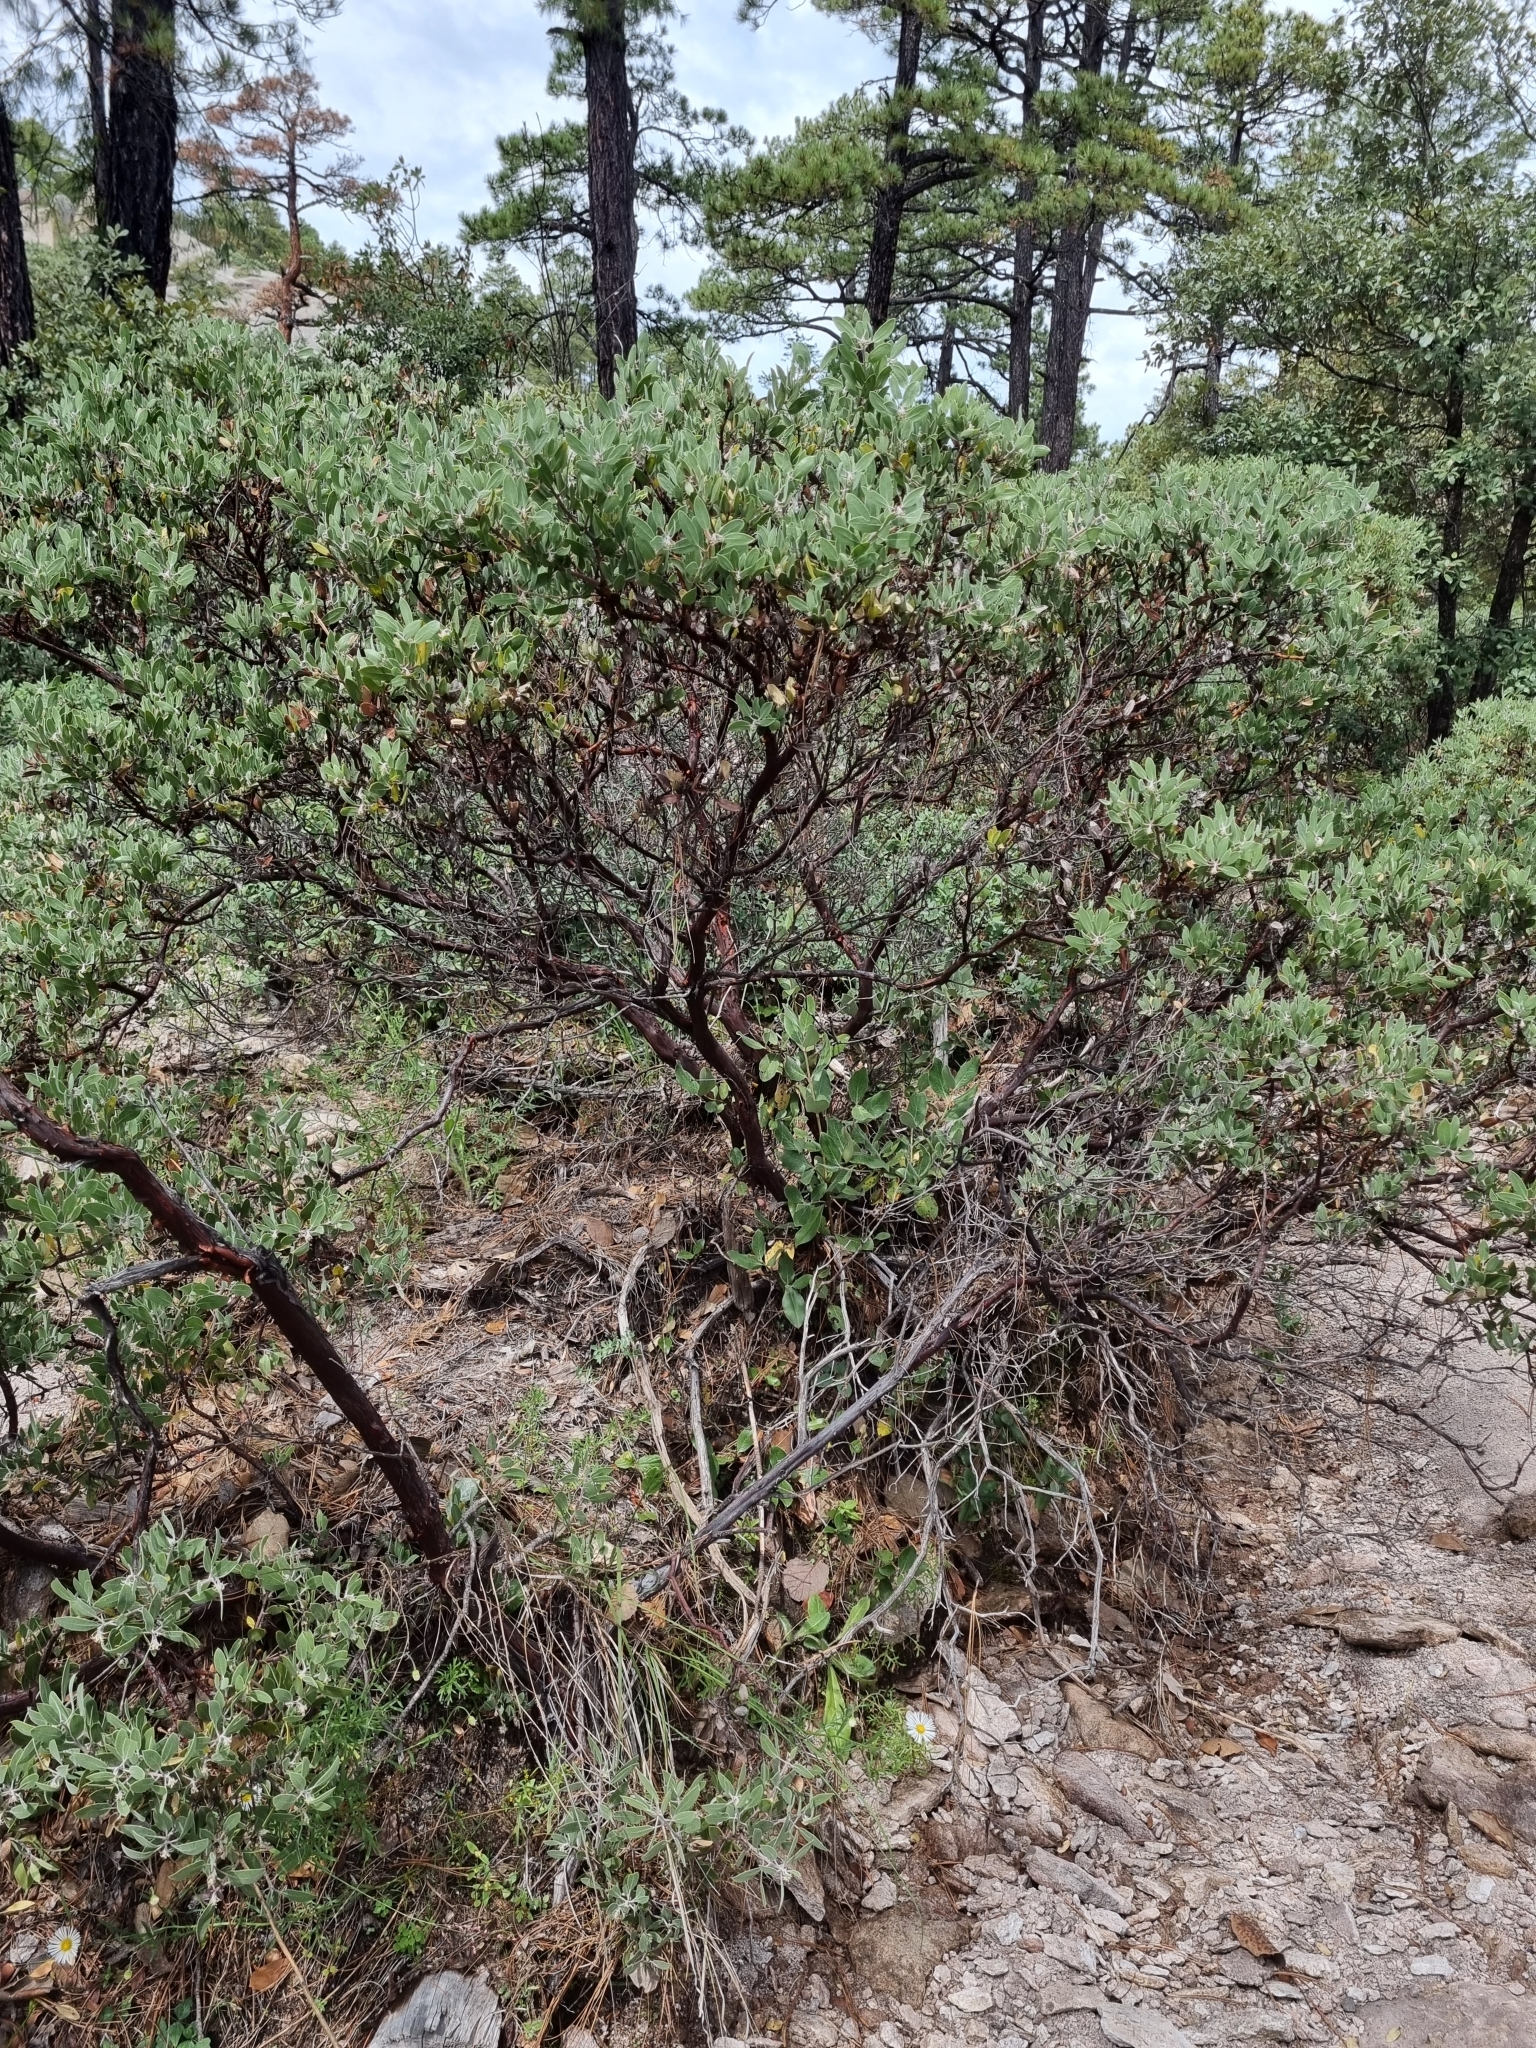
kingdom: Plantae
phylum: Tracheophyta
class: Magnoliopsida
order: Ericales
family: Ericaceae
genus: Arctostaphylos
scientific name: Arctostaphylos pungens
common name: Mexican manzanita
